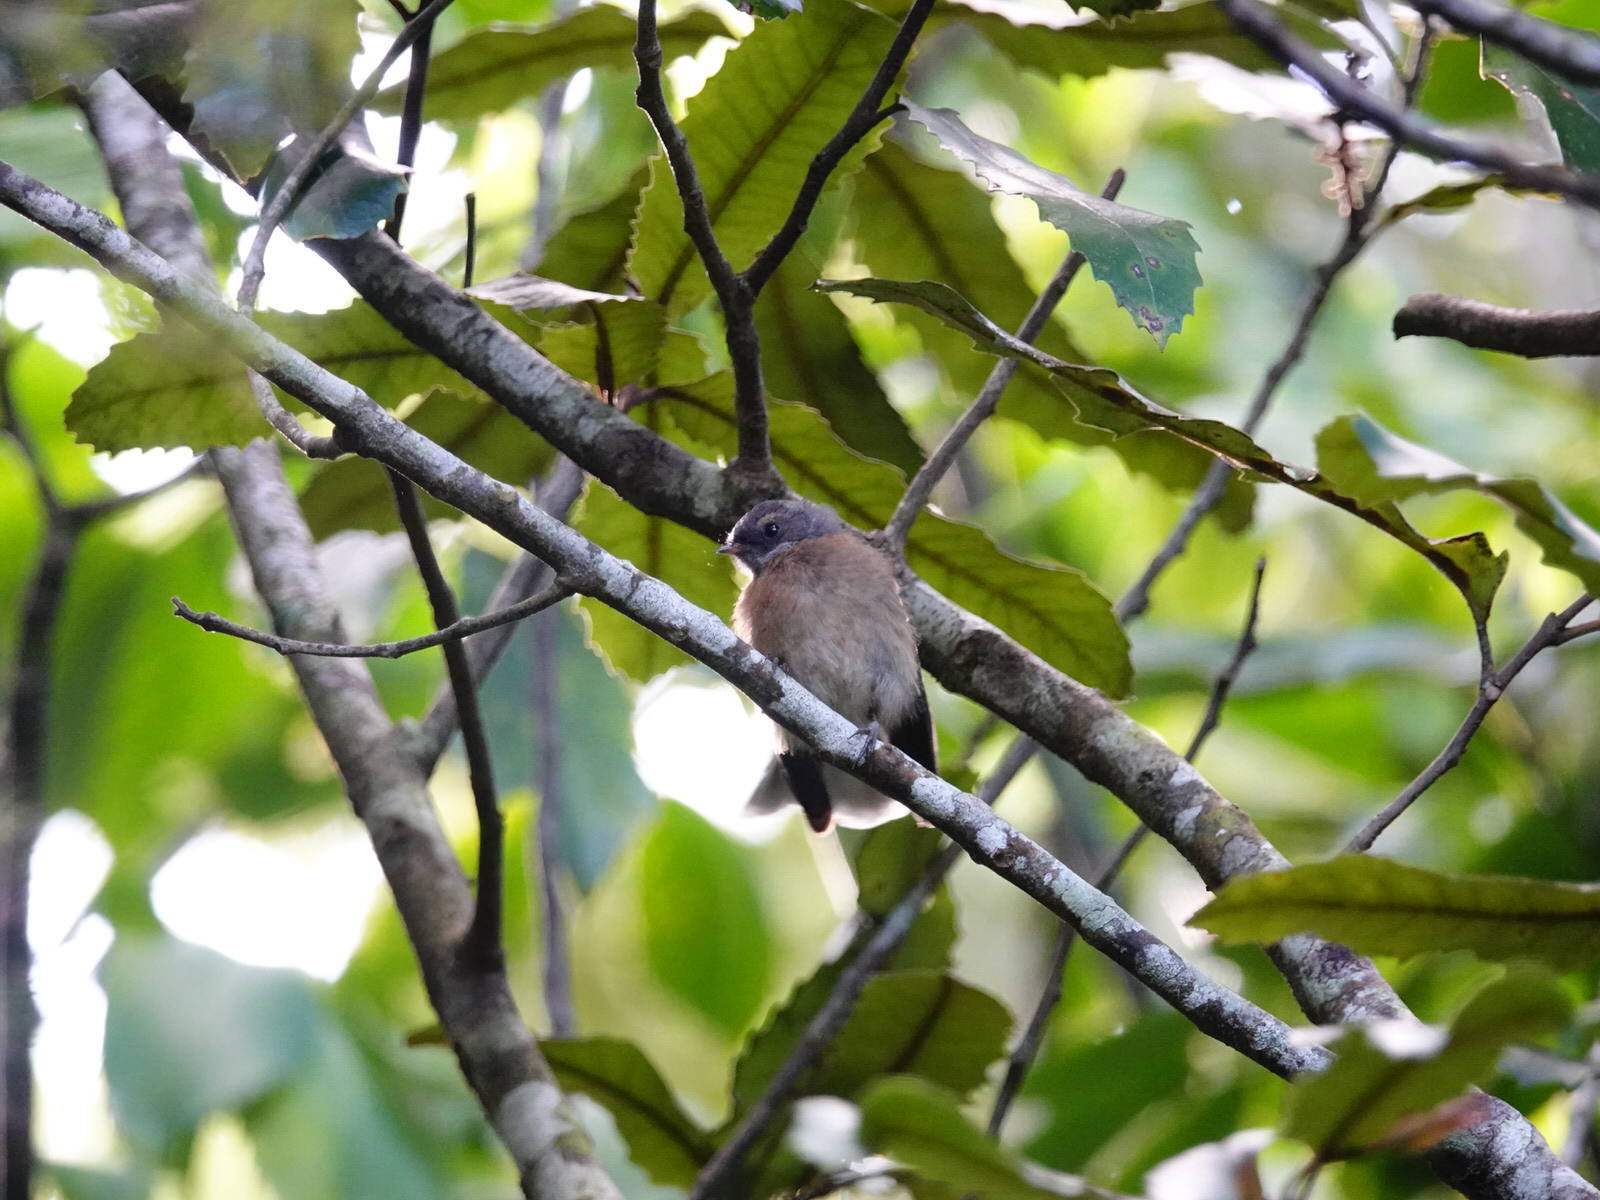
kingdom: Animalia
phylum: Chordata
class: Aves
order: Passeriformes
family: Rhipiduridae
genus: Rhipidura
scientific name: Rhipidura fuliginosa
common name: New zealand fantail
